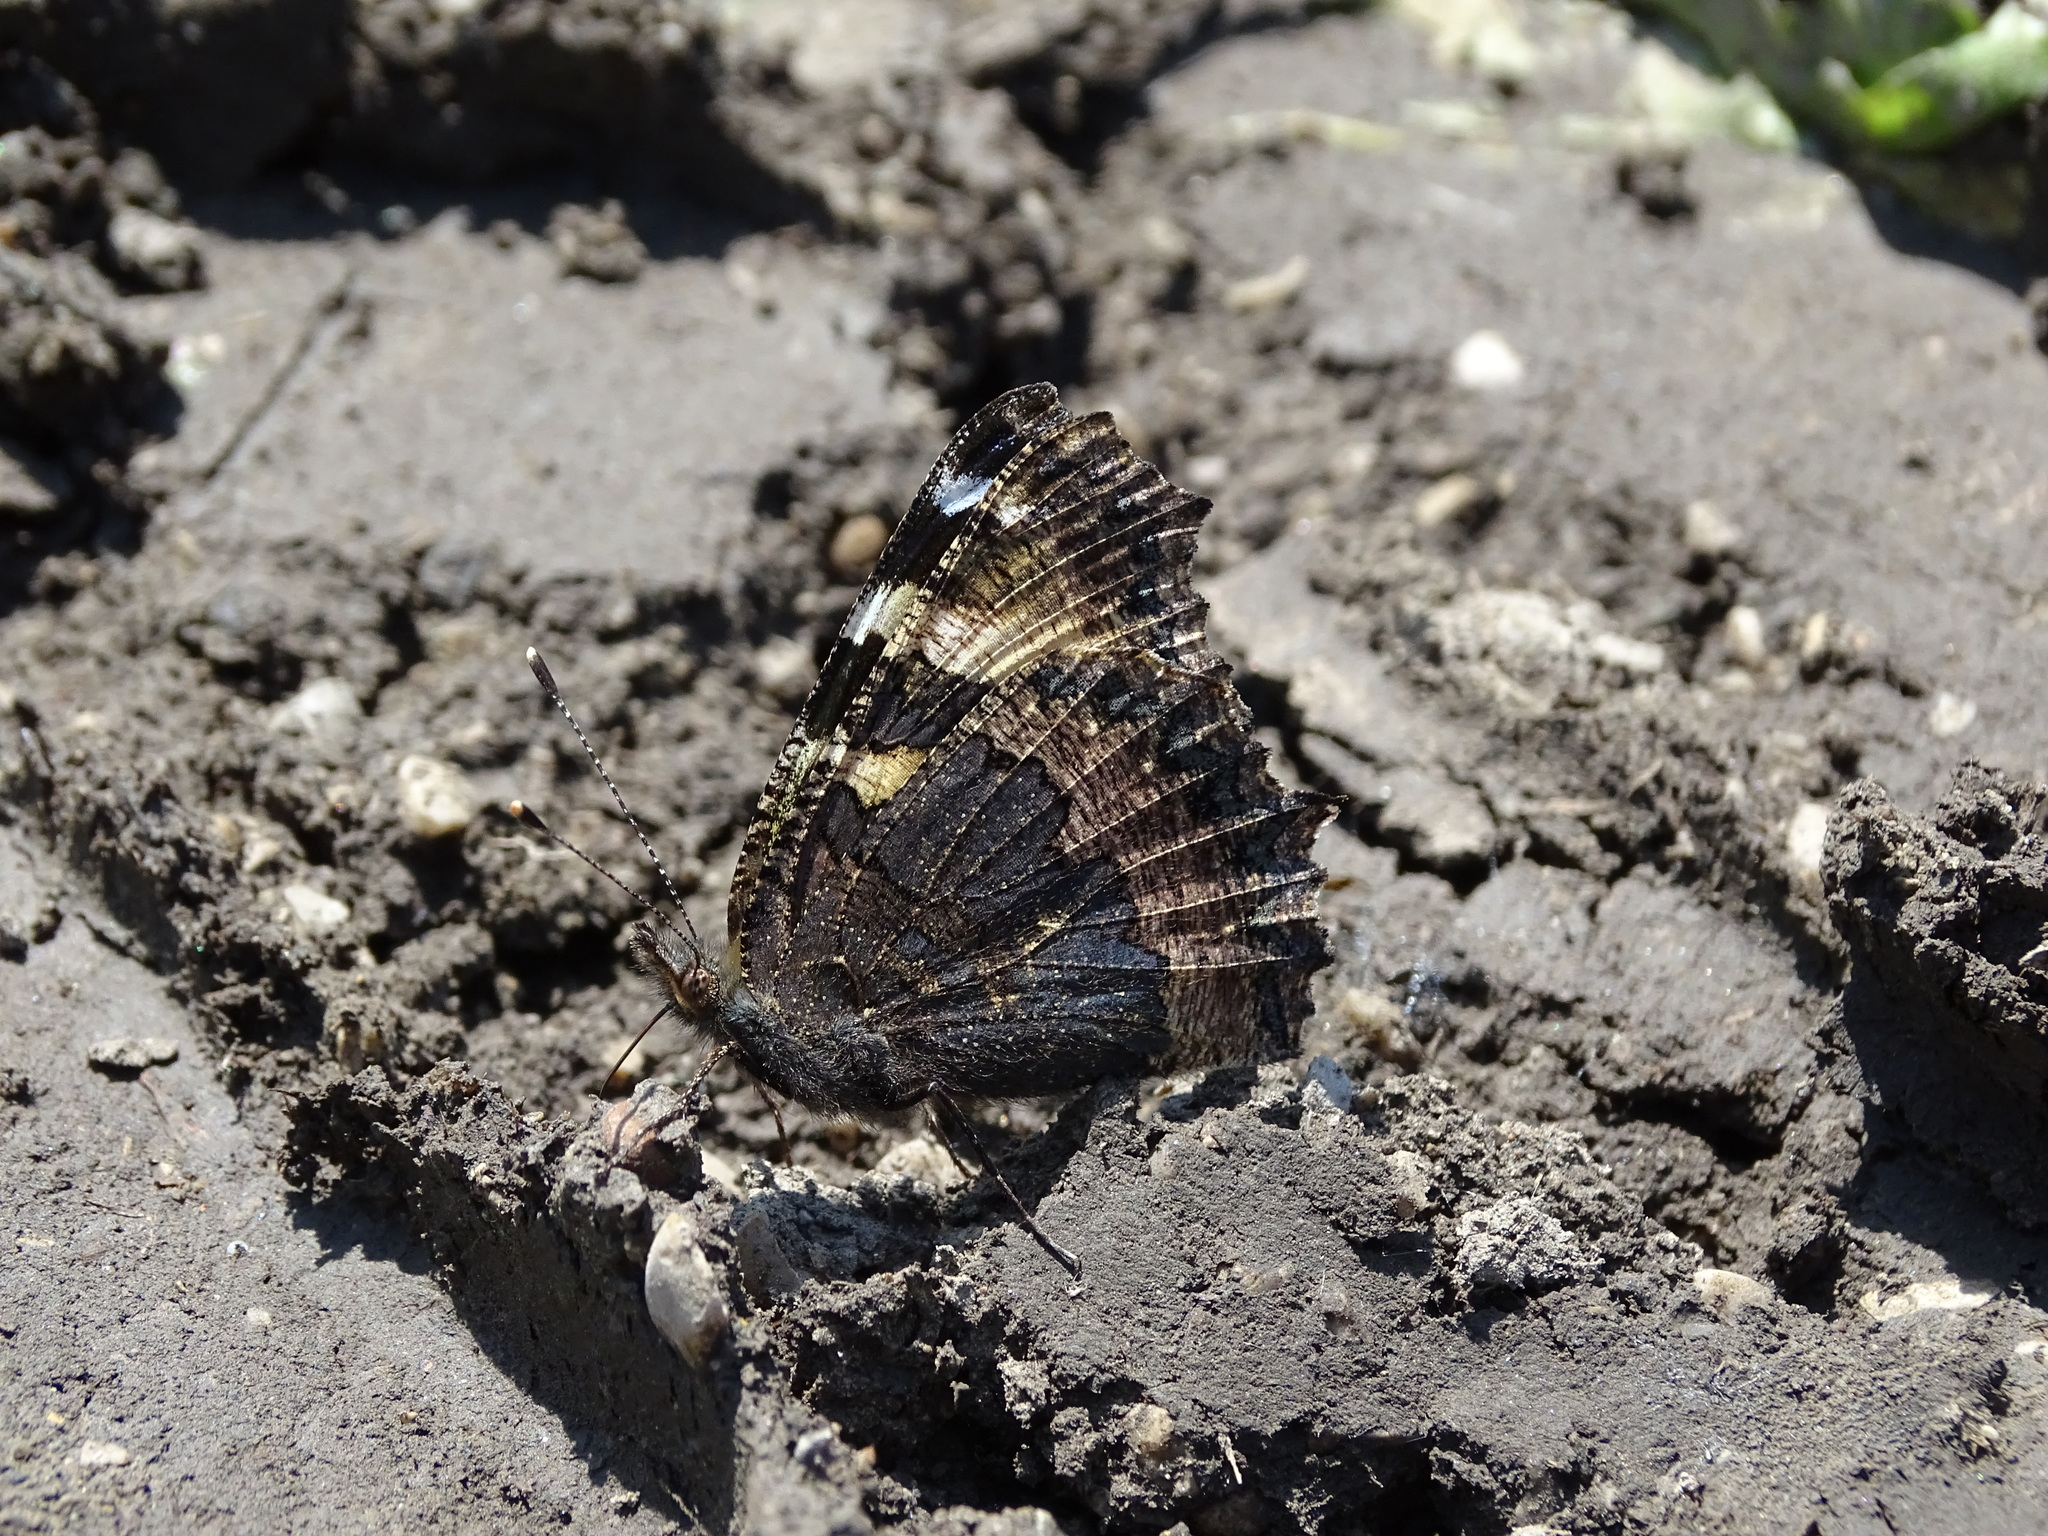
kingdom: Animalia
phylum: Arthropoda
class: Insecta
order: Lepidoptera
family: Nymphalidae
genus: Aglais
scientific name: Aglais urticae
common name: Small tortoiseshell
